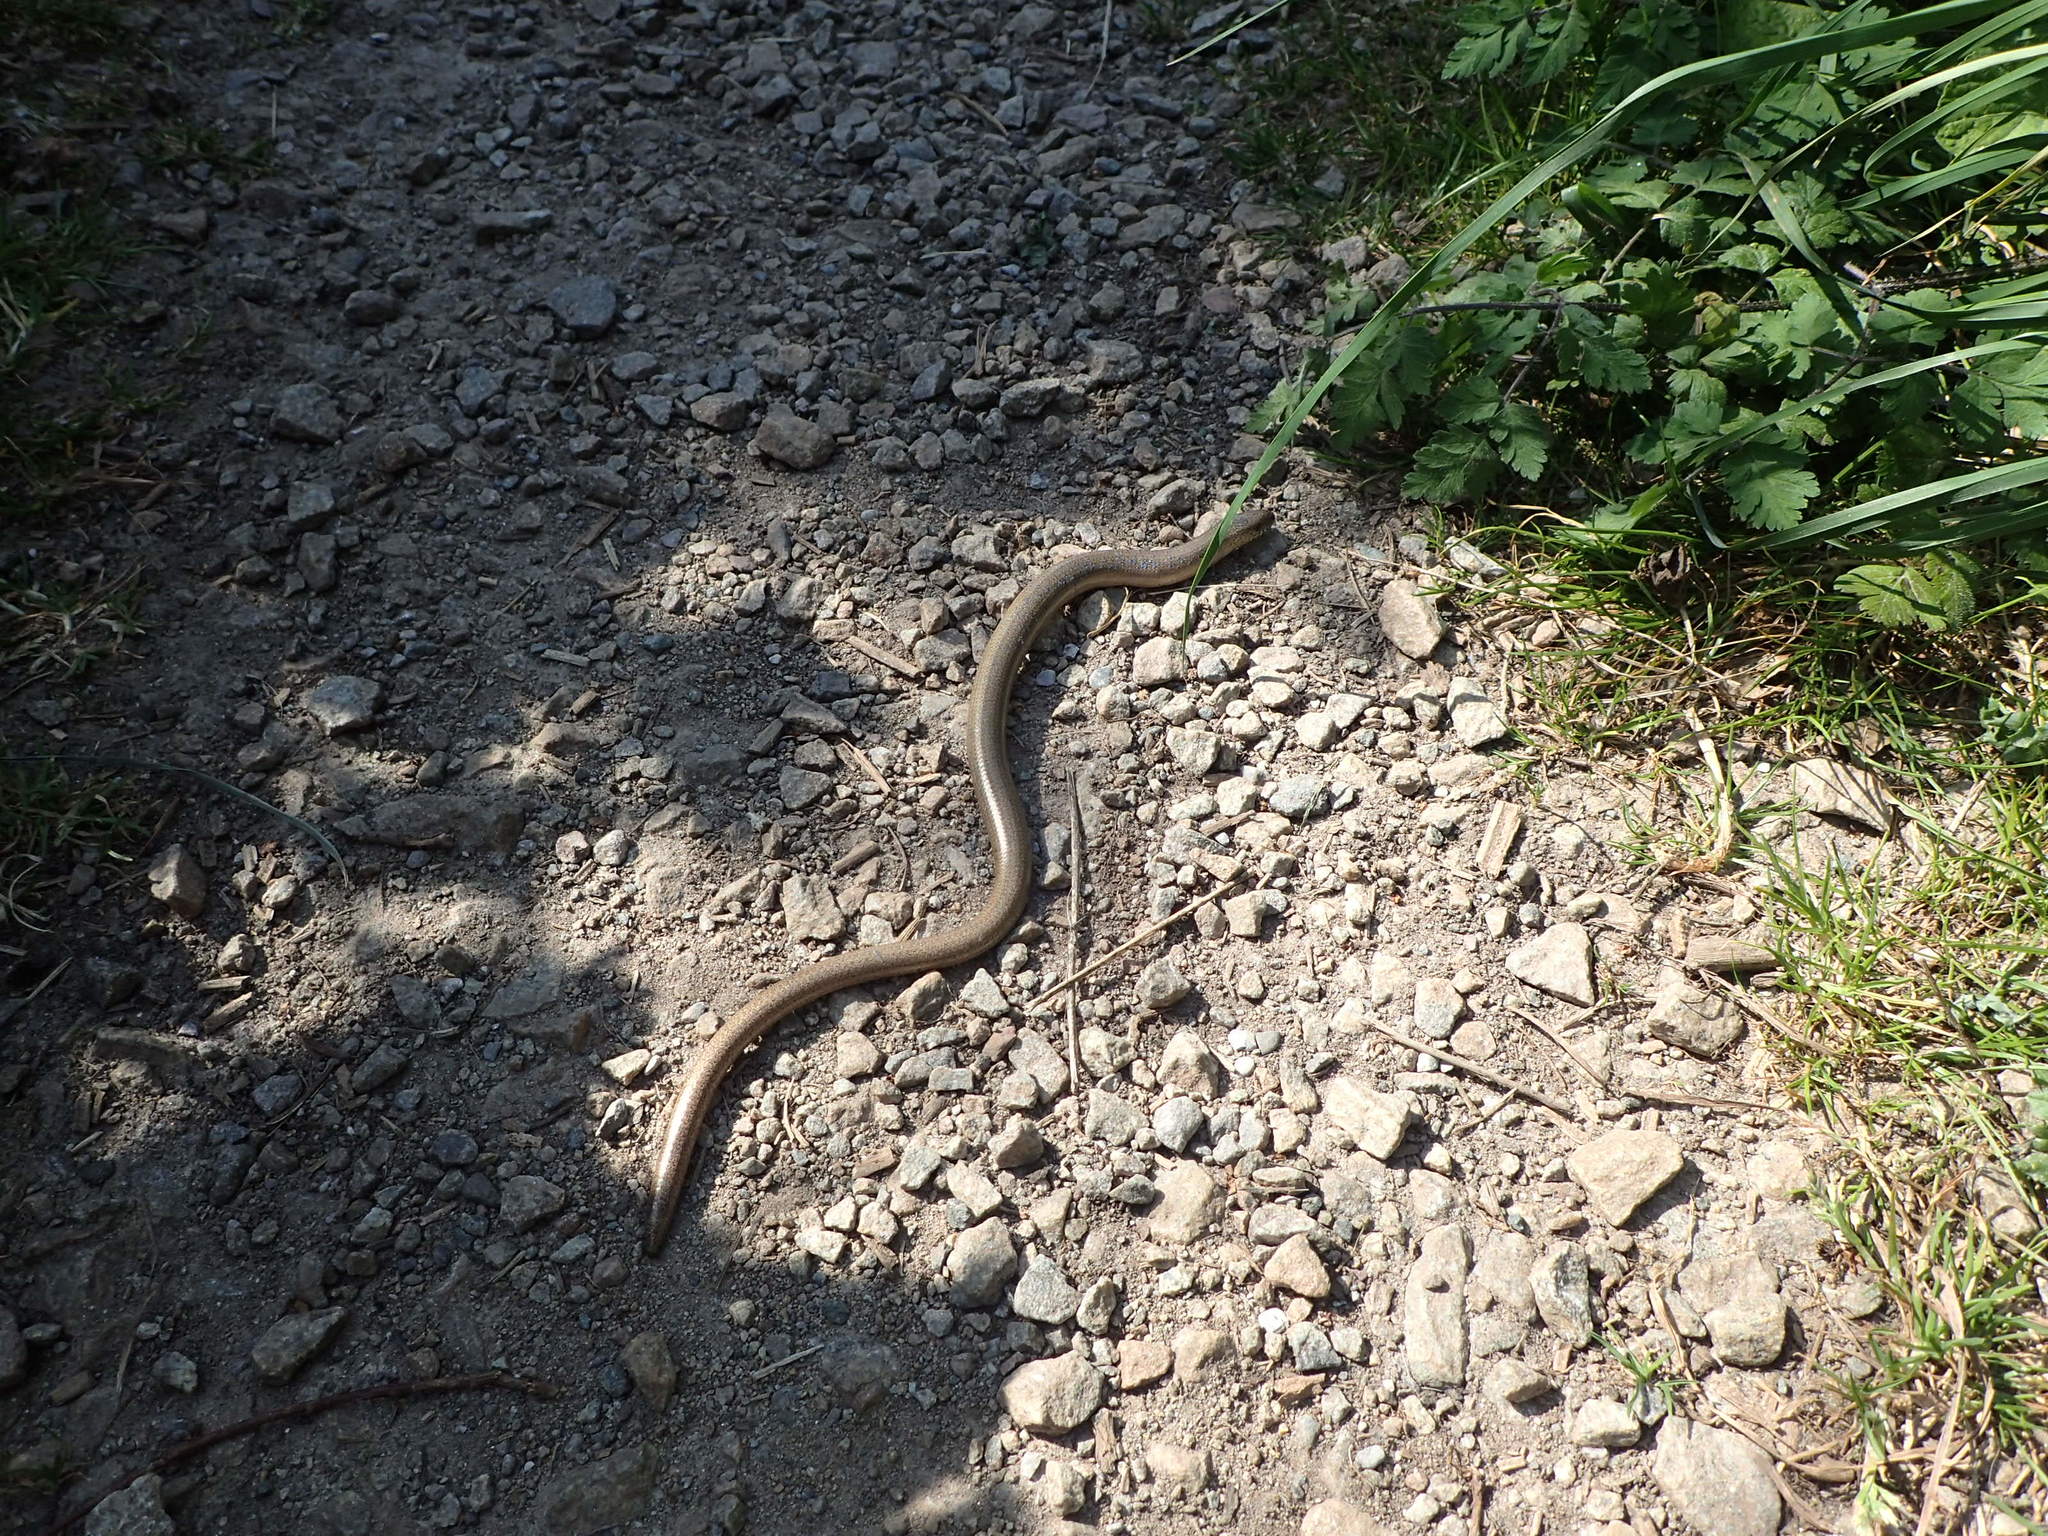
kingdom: Animalia
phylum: Chordata
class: Squamata
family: Anguidae
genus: Anguis
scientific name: Anguis fragilis
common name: Slow worm
